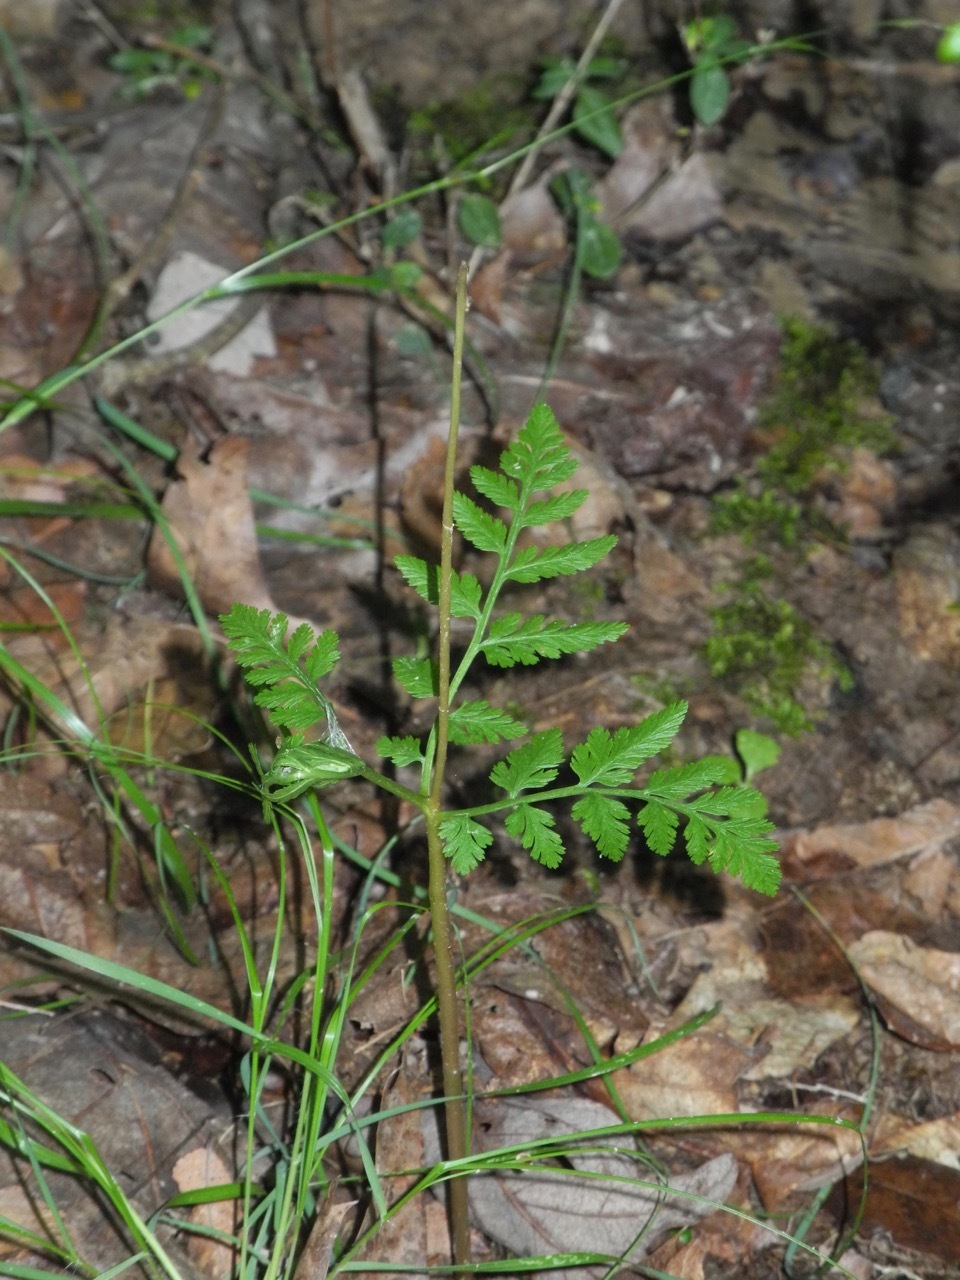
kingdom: Plantae
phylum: Tracheophyta
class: Polypodiopsida
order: Ophioglossales
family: Ophioglossaceae
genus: Botrypus
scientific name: Botrypus virginianus
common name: Common grapefern
